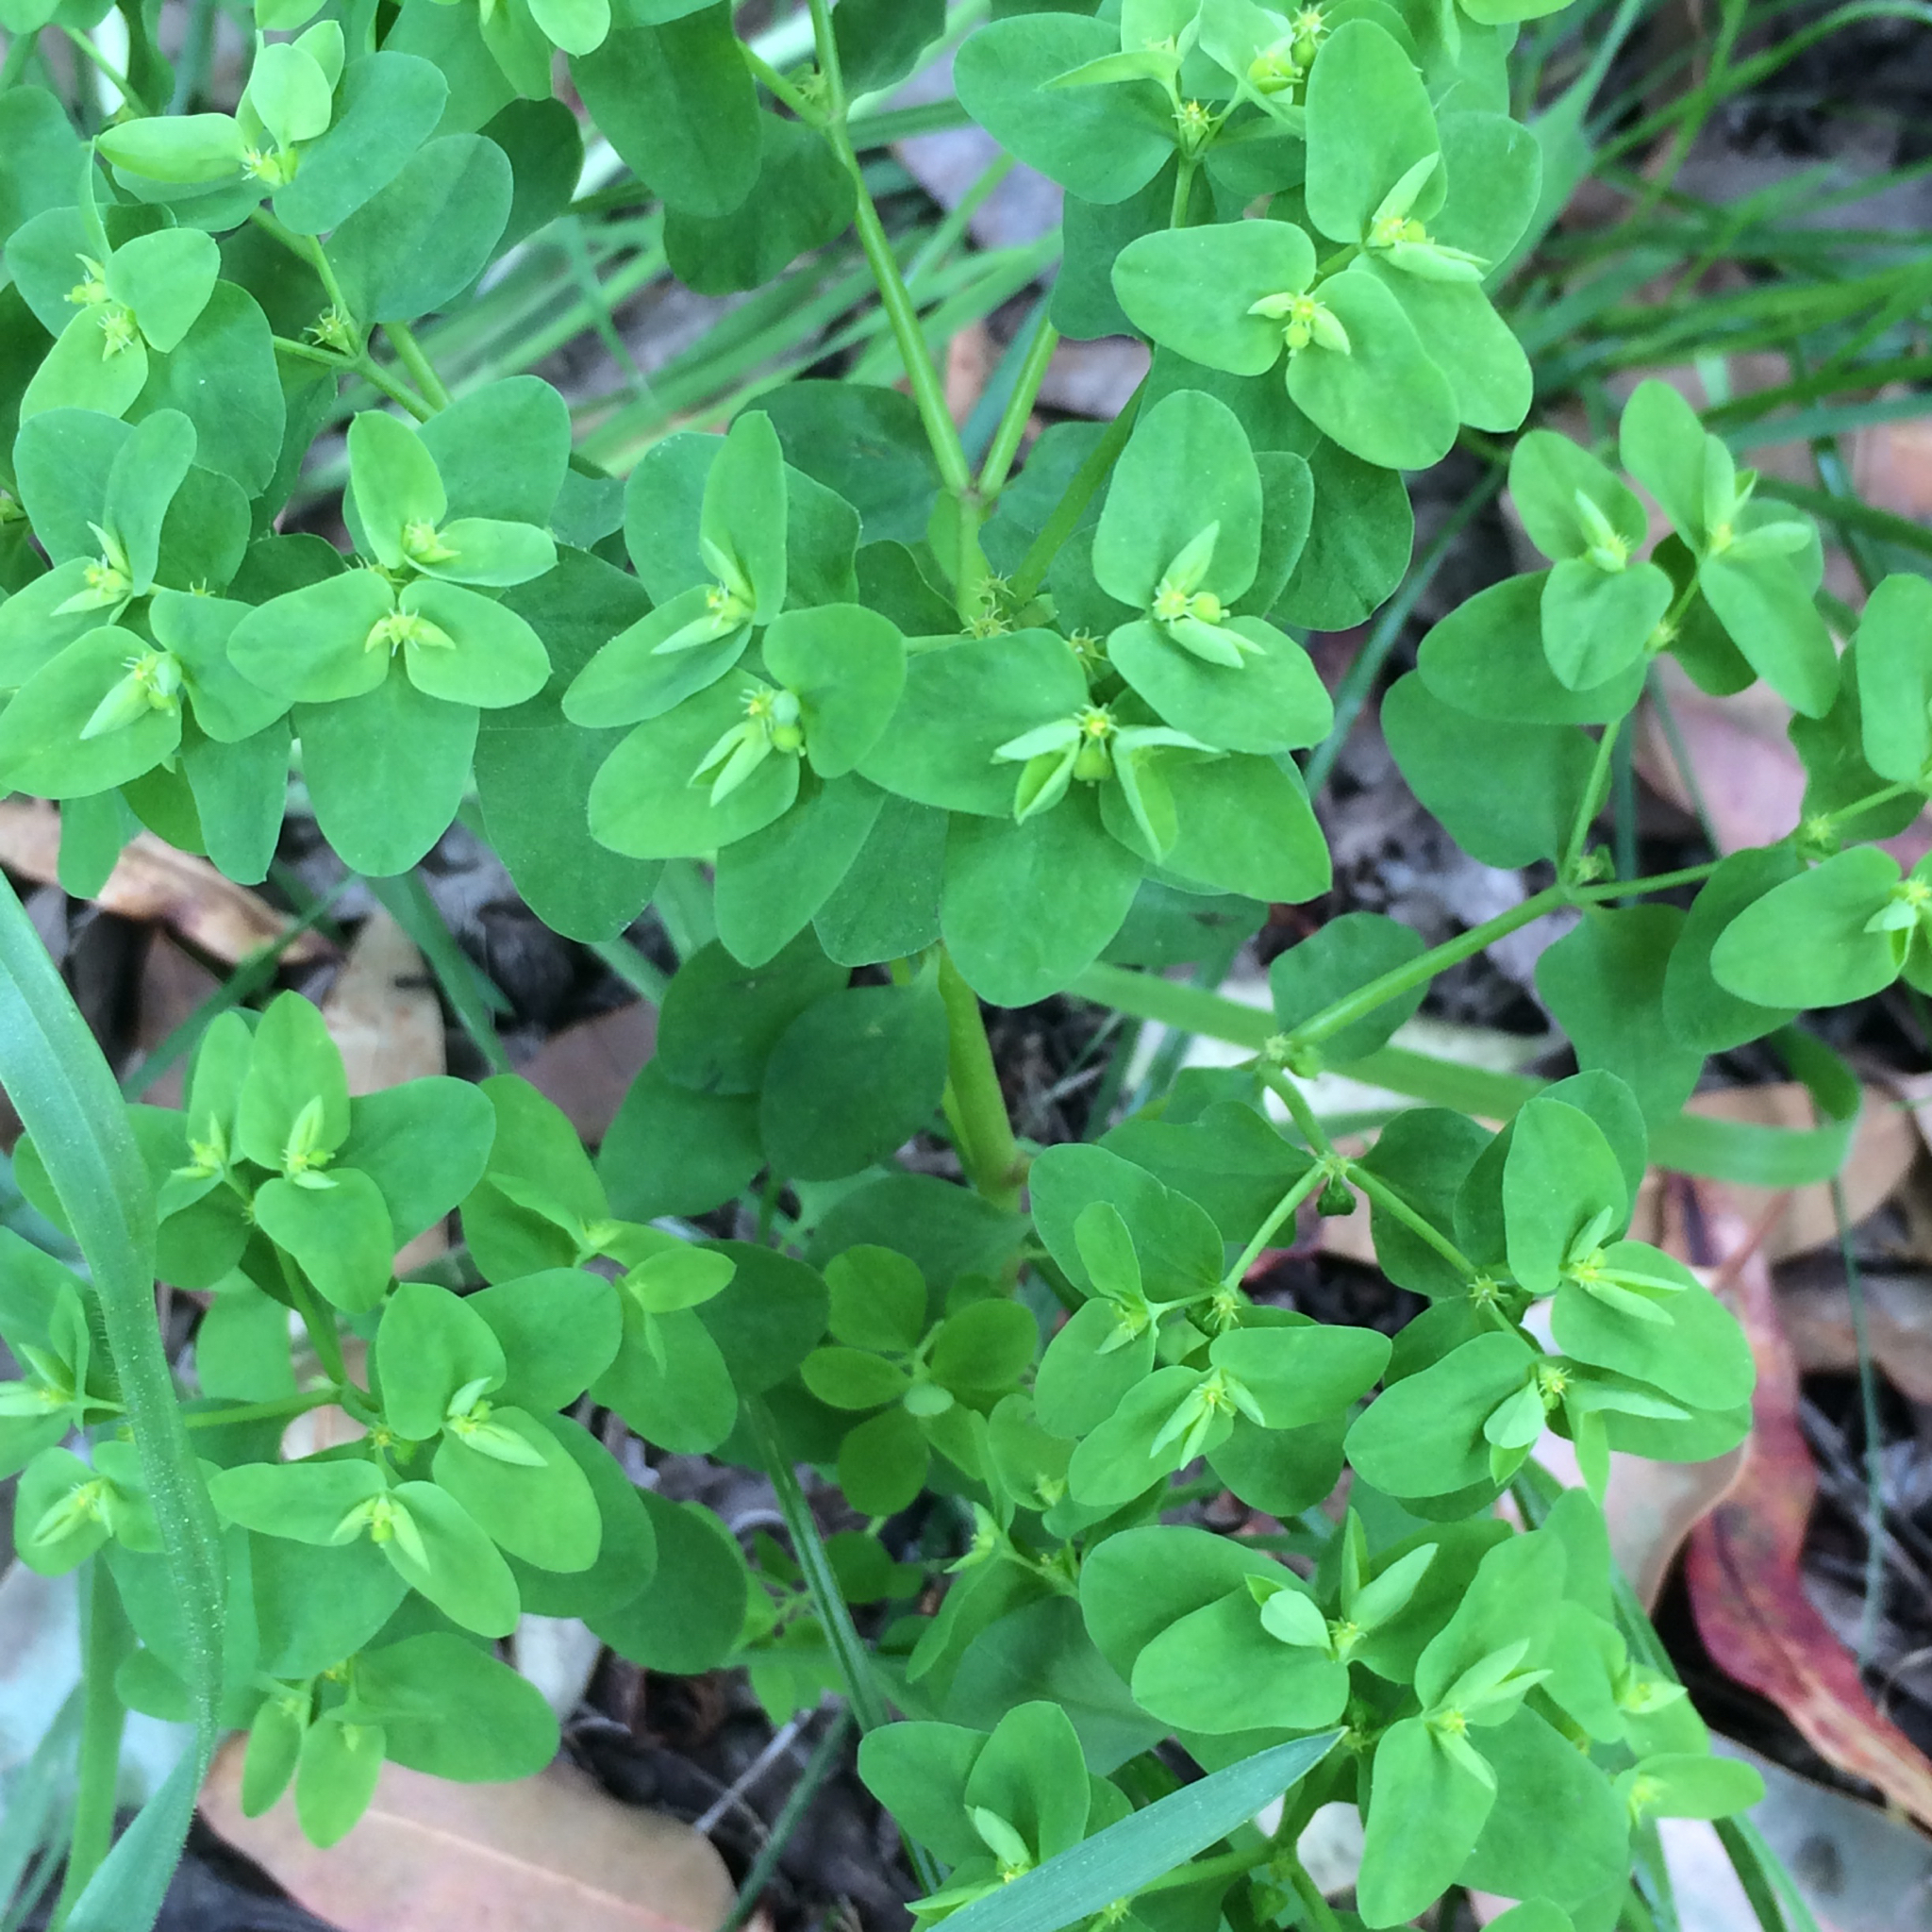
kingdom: Plantae
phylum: Tracheophyta
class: Magnoliopsida
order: Malpighiales
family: Euphorbiaceae
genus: Euphorbia
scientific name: Euphorbia peplus
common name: Petty spurge
